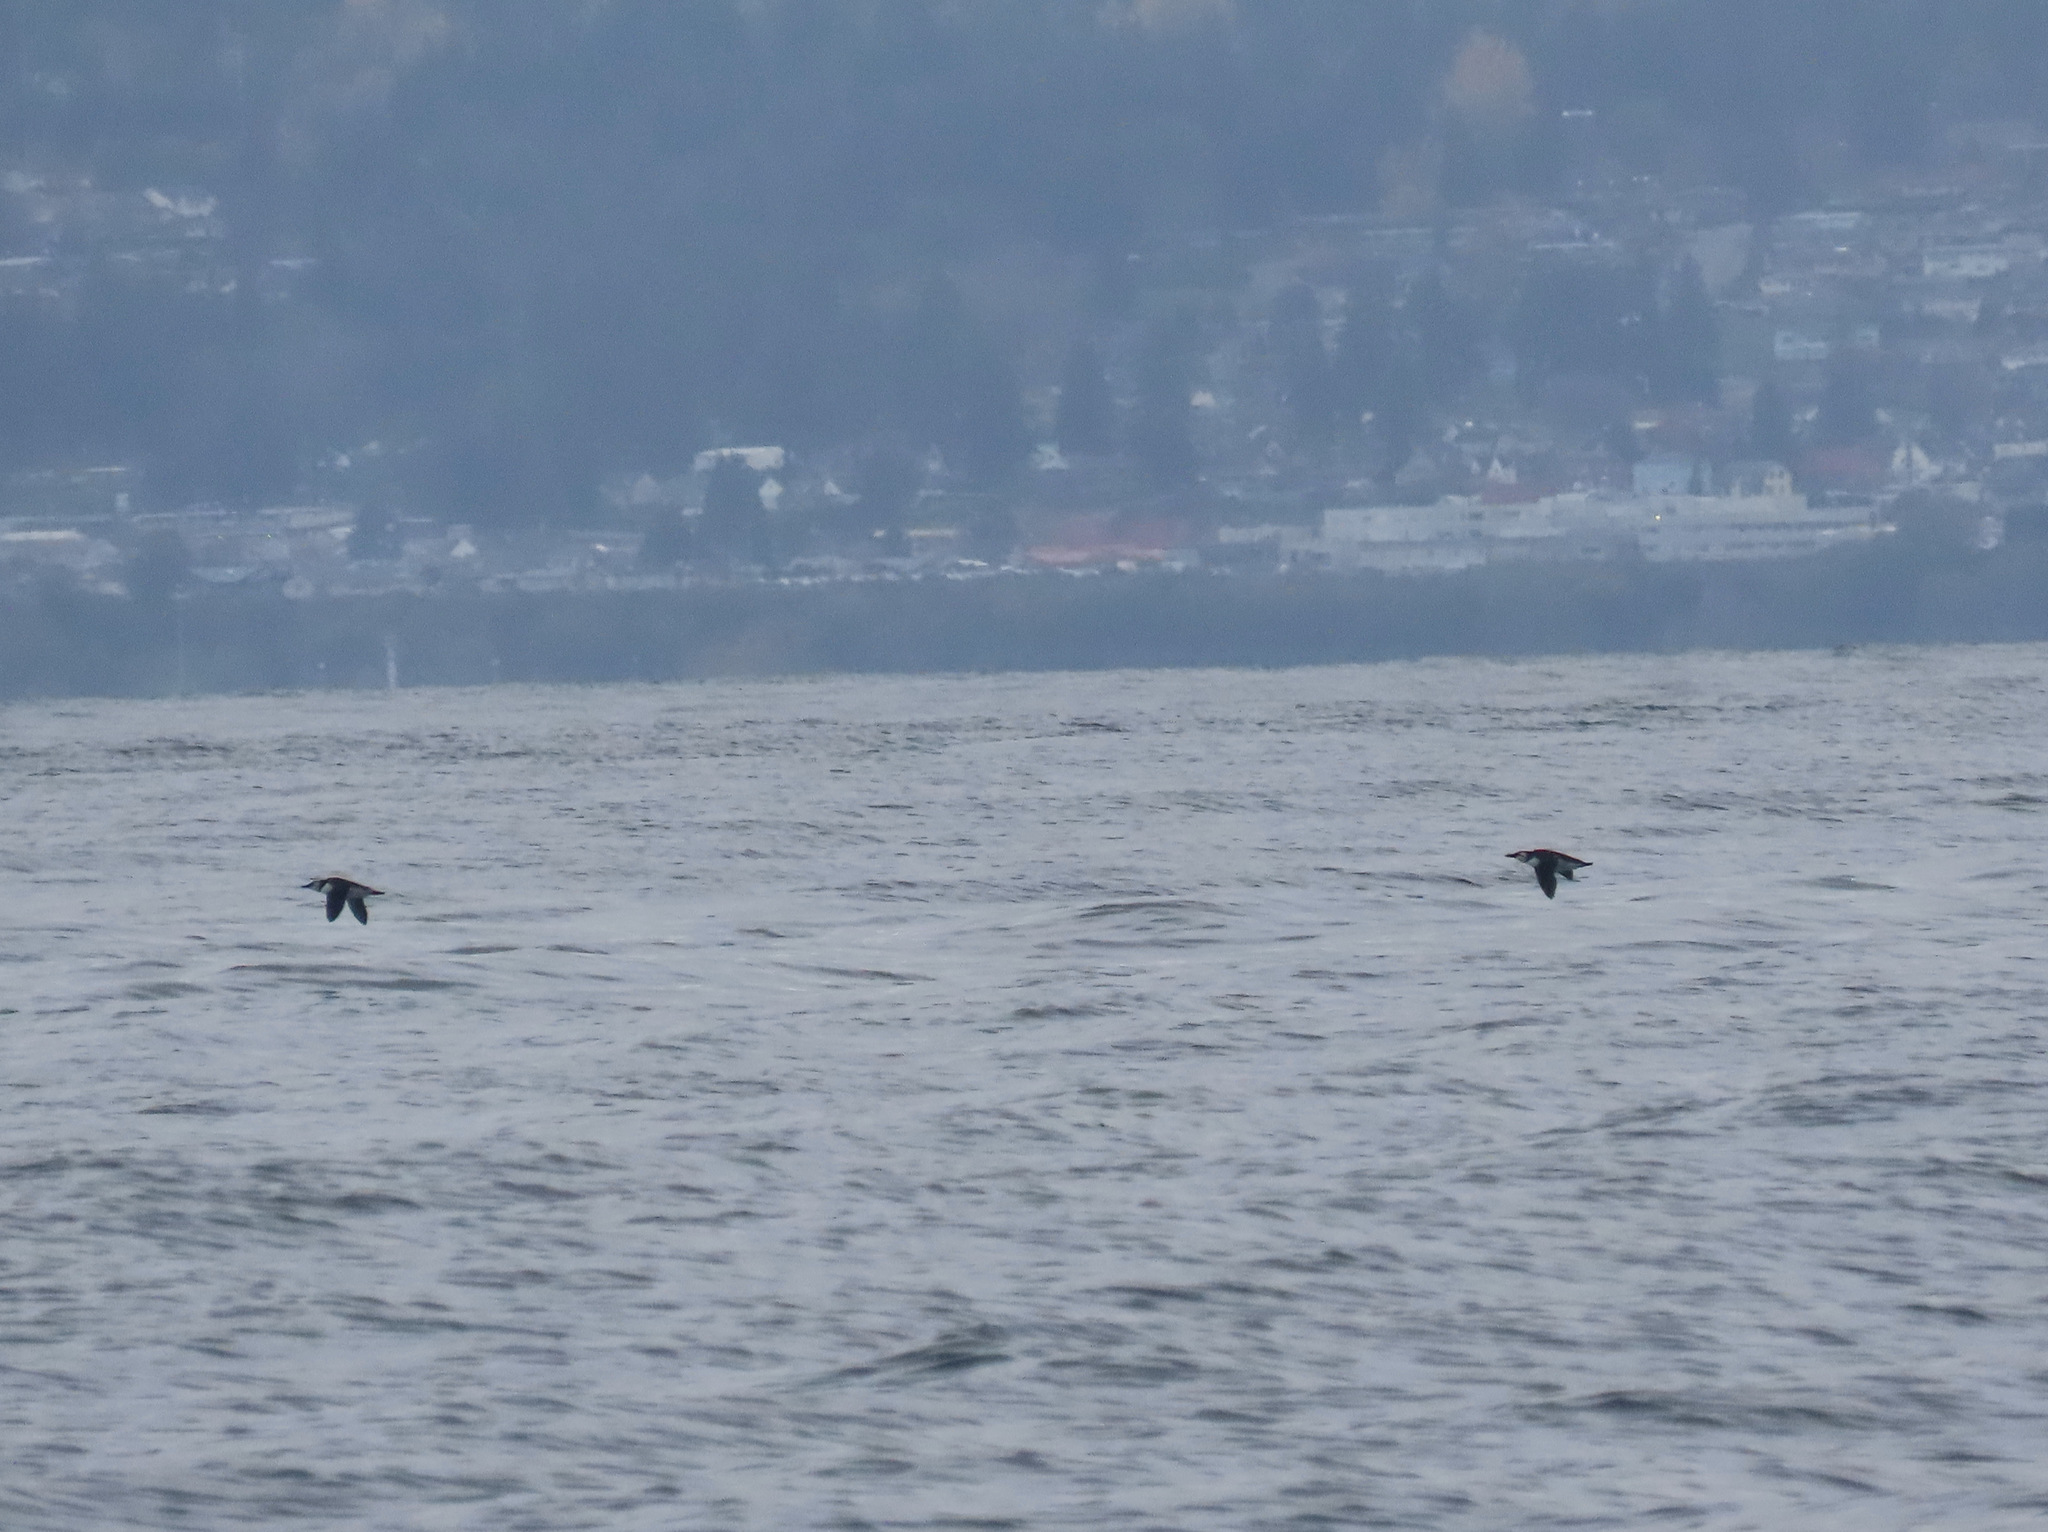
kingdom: Animalia
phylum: Chordata
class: Aves
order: Charadriiformes
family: Alcidae
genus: Uria
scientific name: Uria aalge
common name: Common murre
